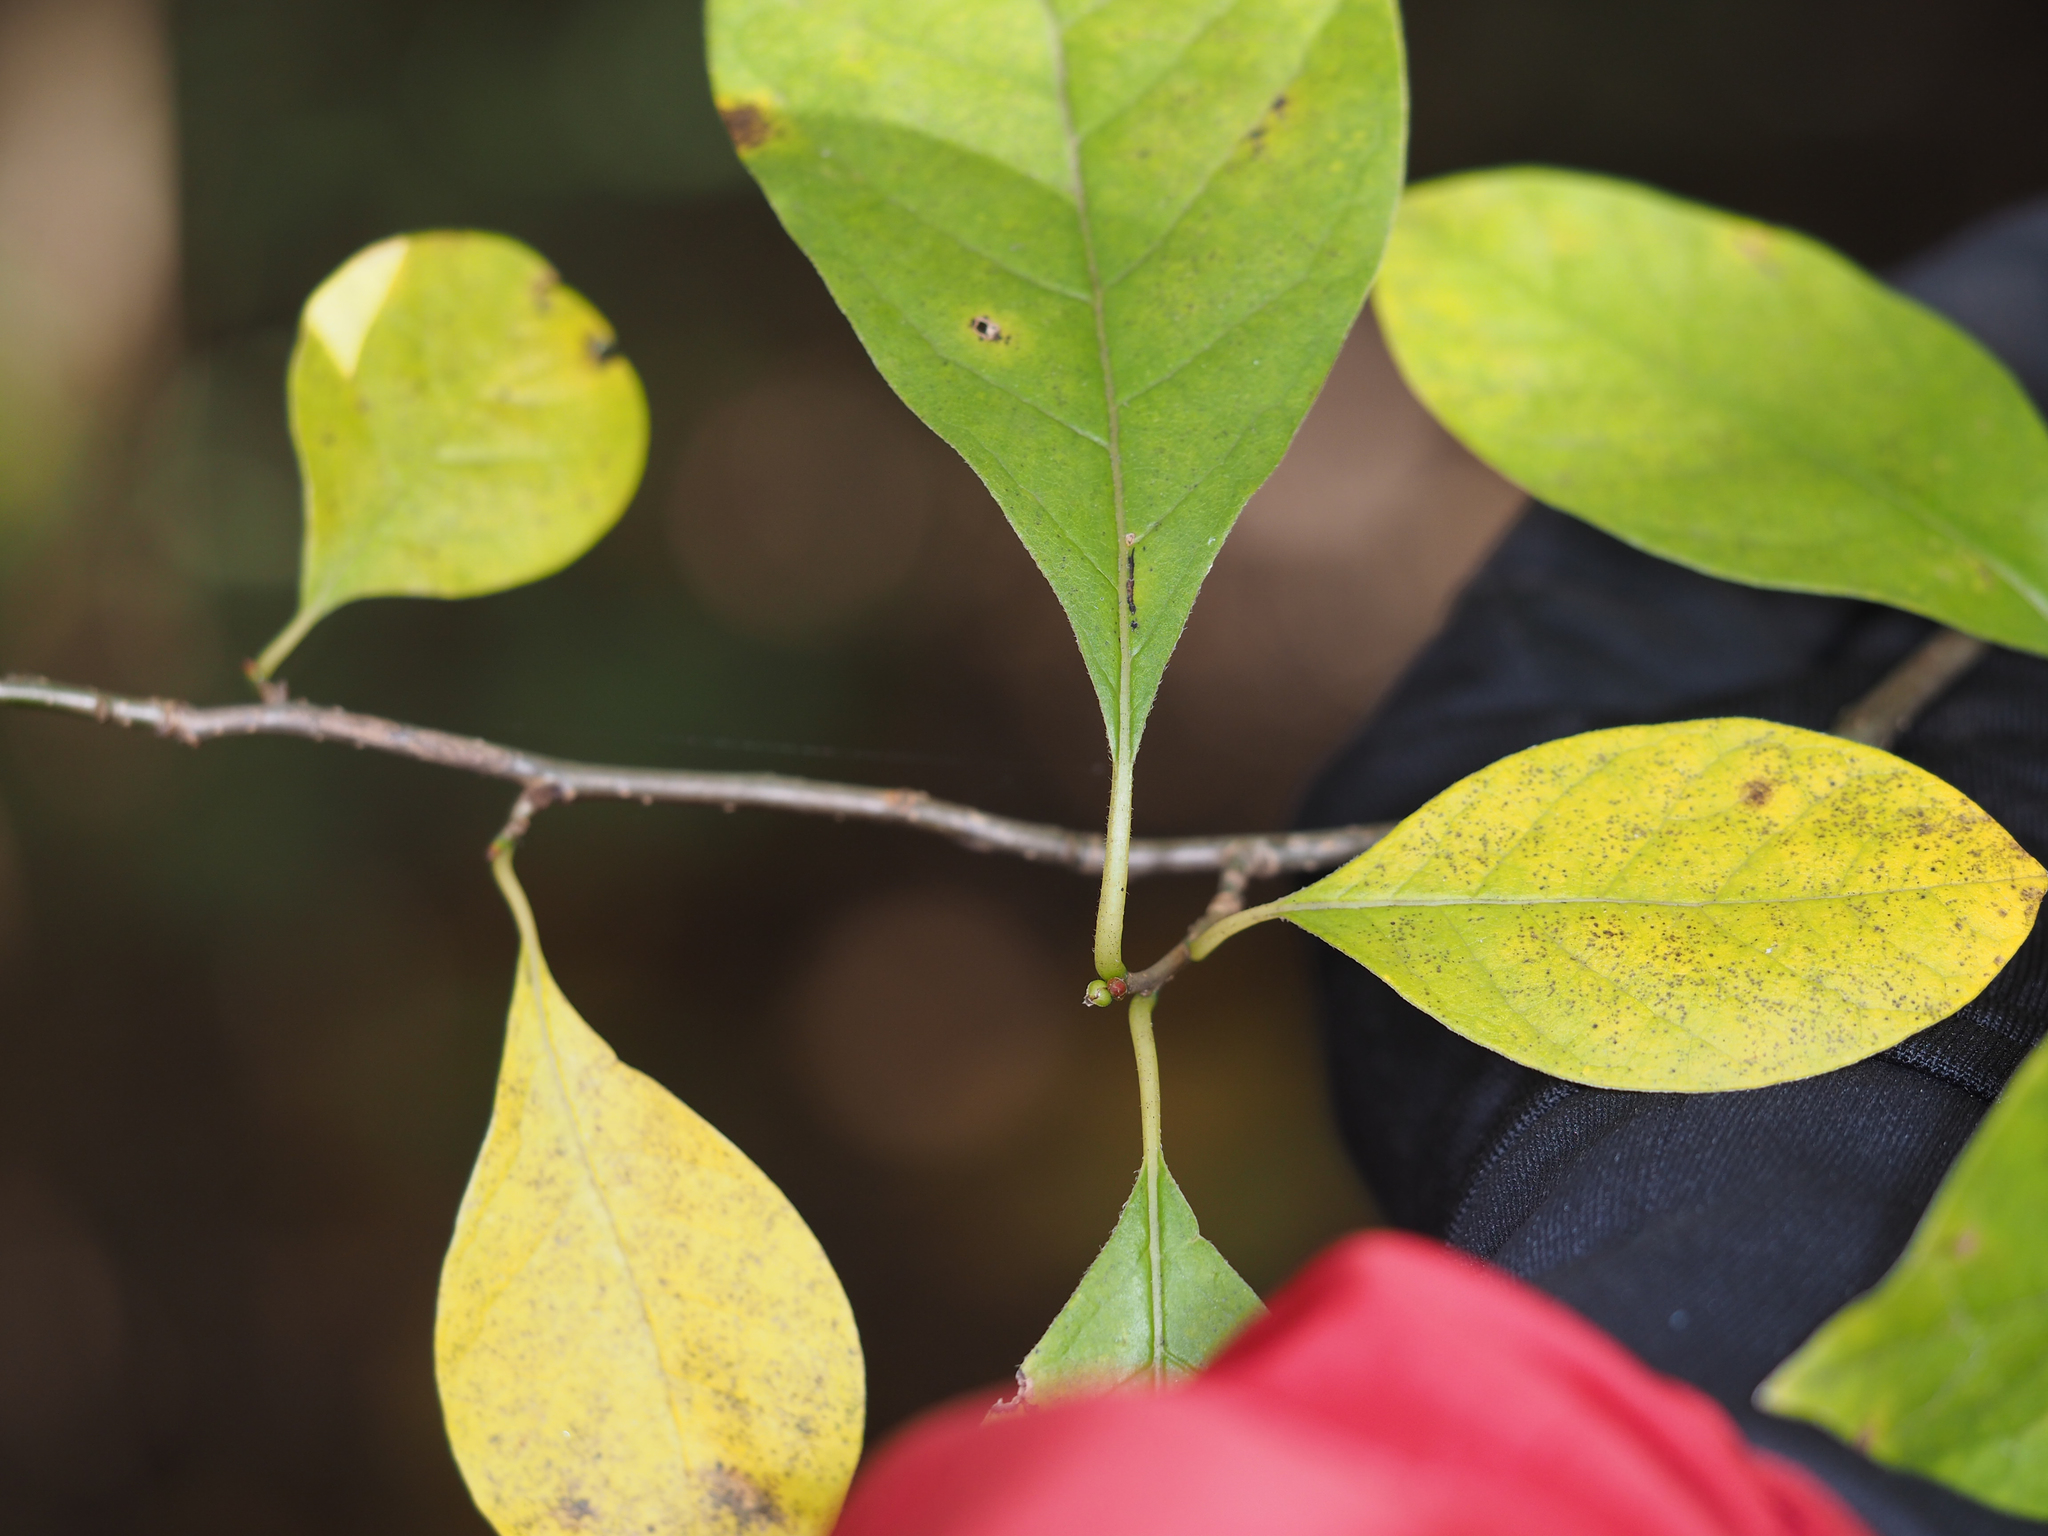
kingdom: Plantae
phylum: Tracheophyta
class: Magnoliopsida
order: Laurales
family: Lauraceae
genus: Lindera
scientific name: Lindera benzoin
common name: Spicebush
